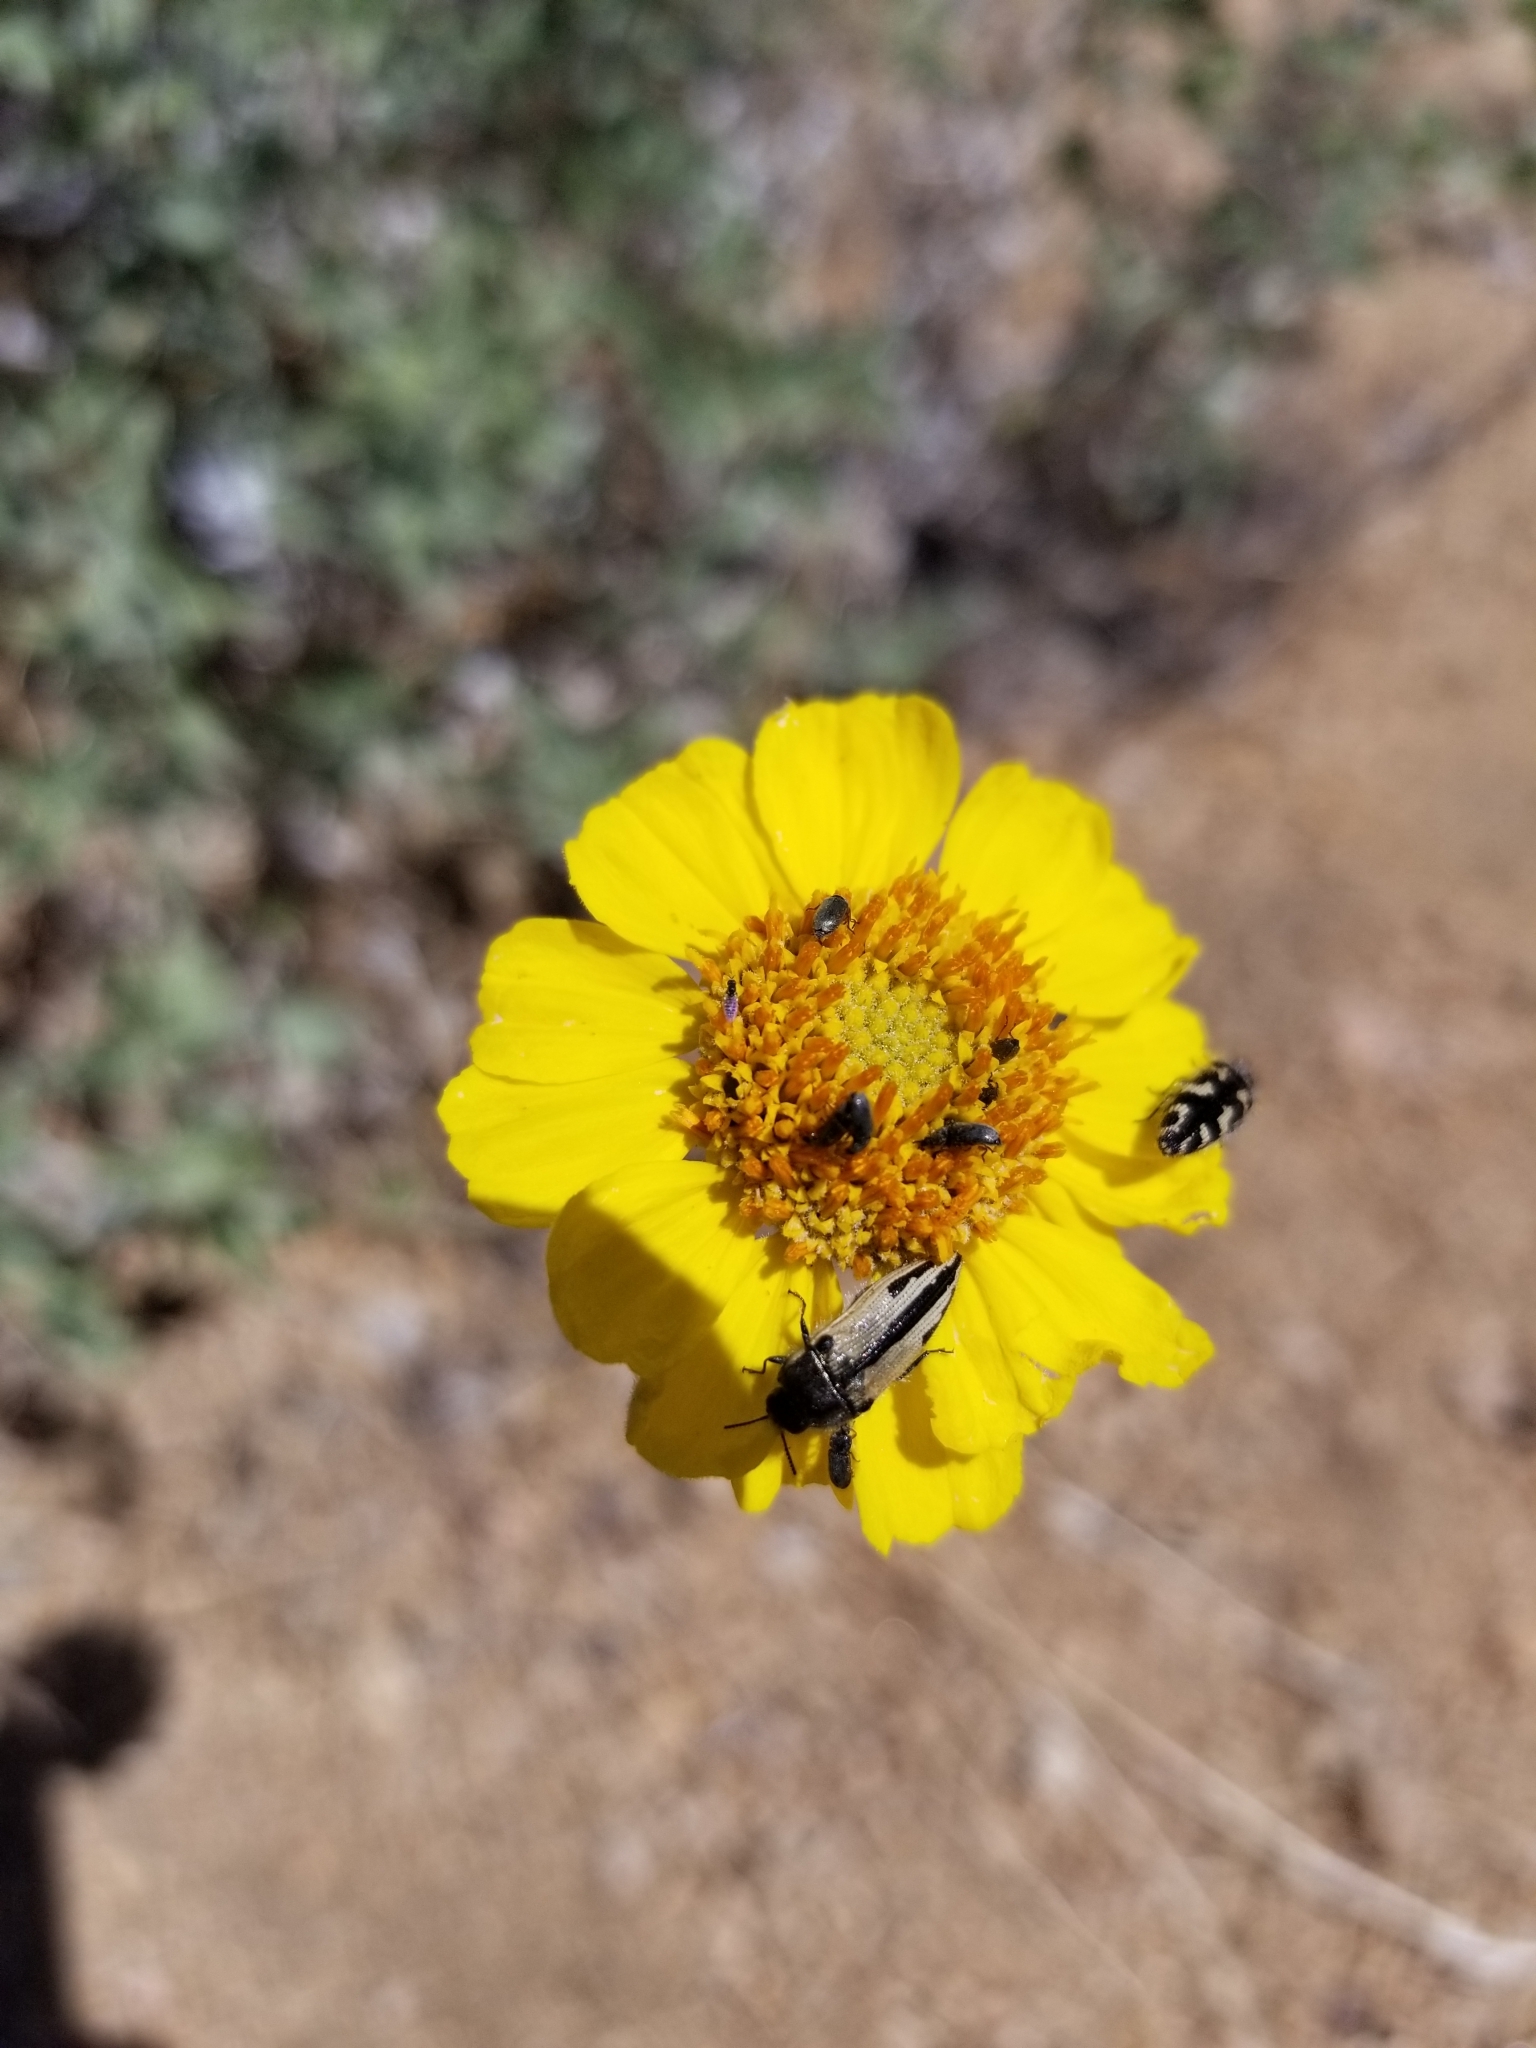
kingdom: Animalia
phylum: Arthropoda
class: Insecta
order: Coleoptera
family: Buprestidae
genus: Acmaeodera
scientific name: Acmaeodera latiflava
